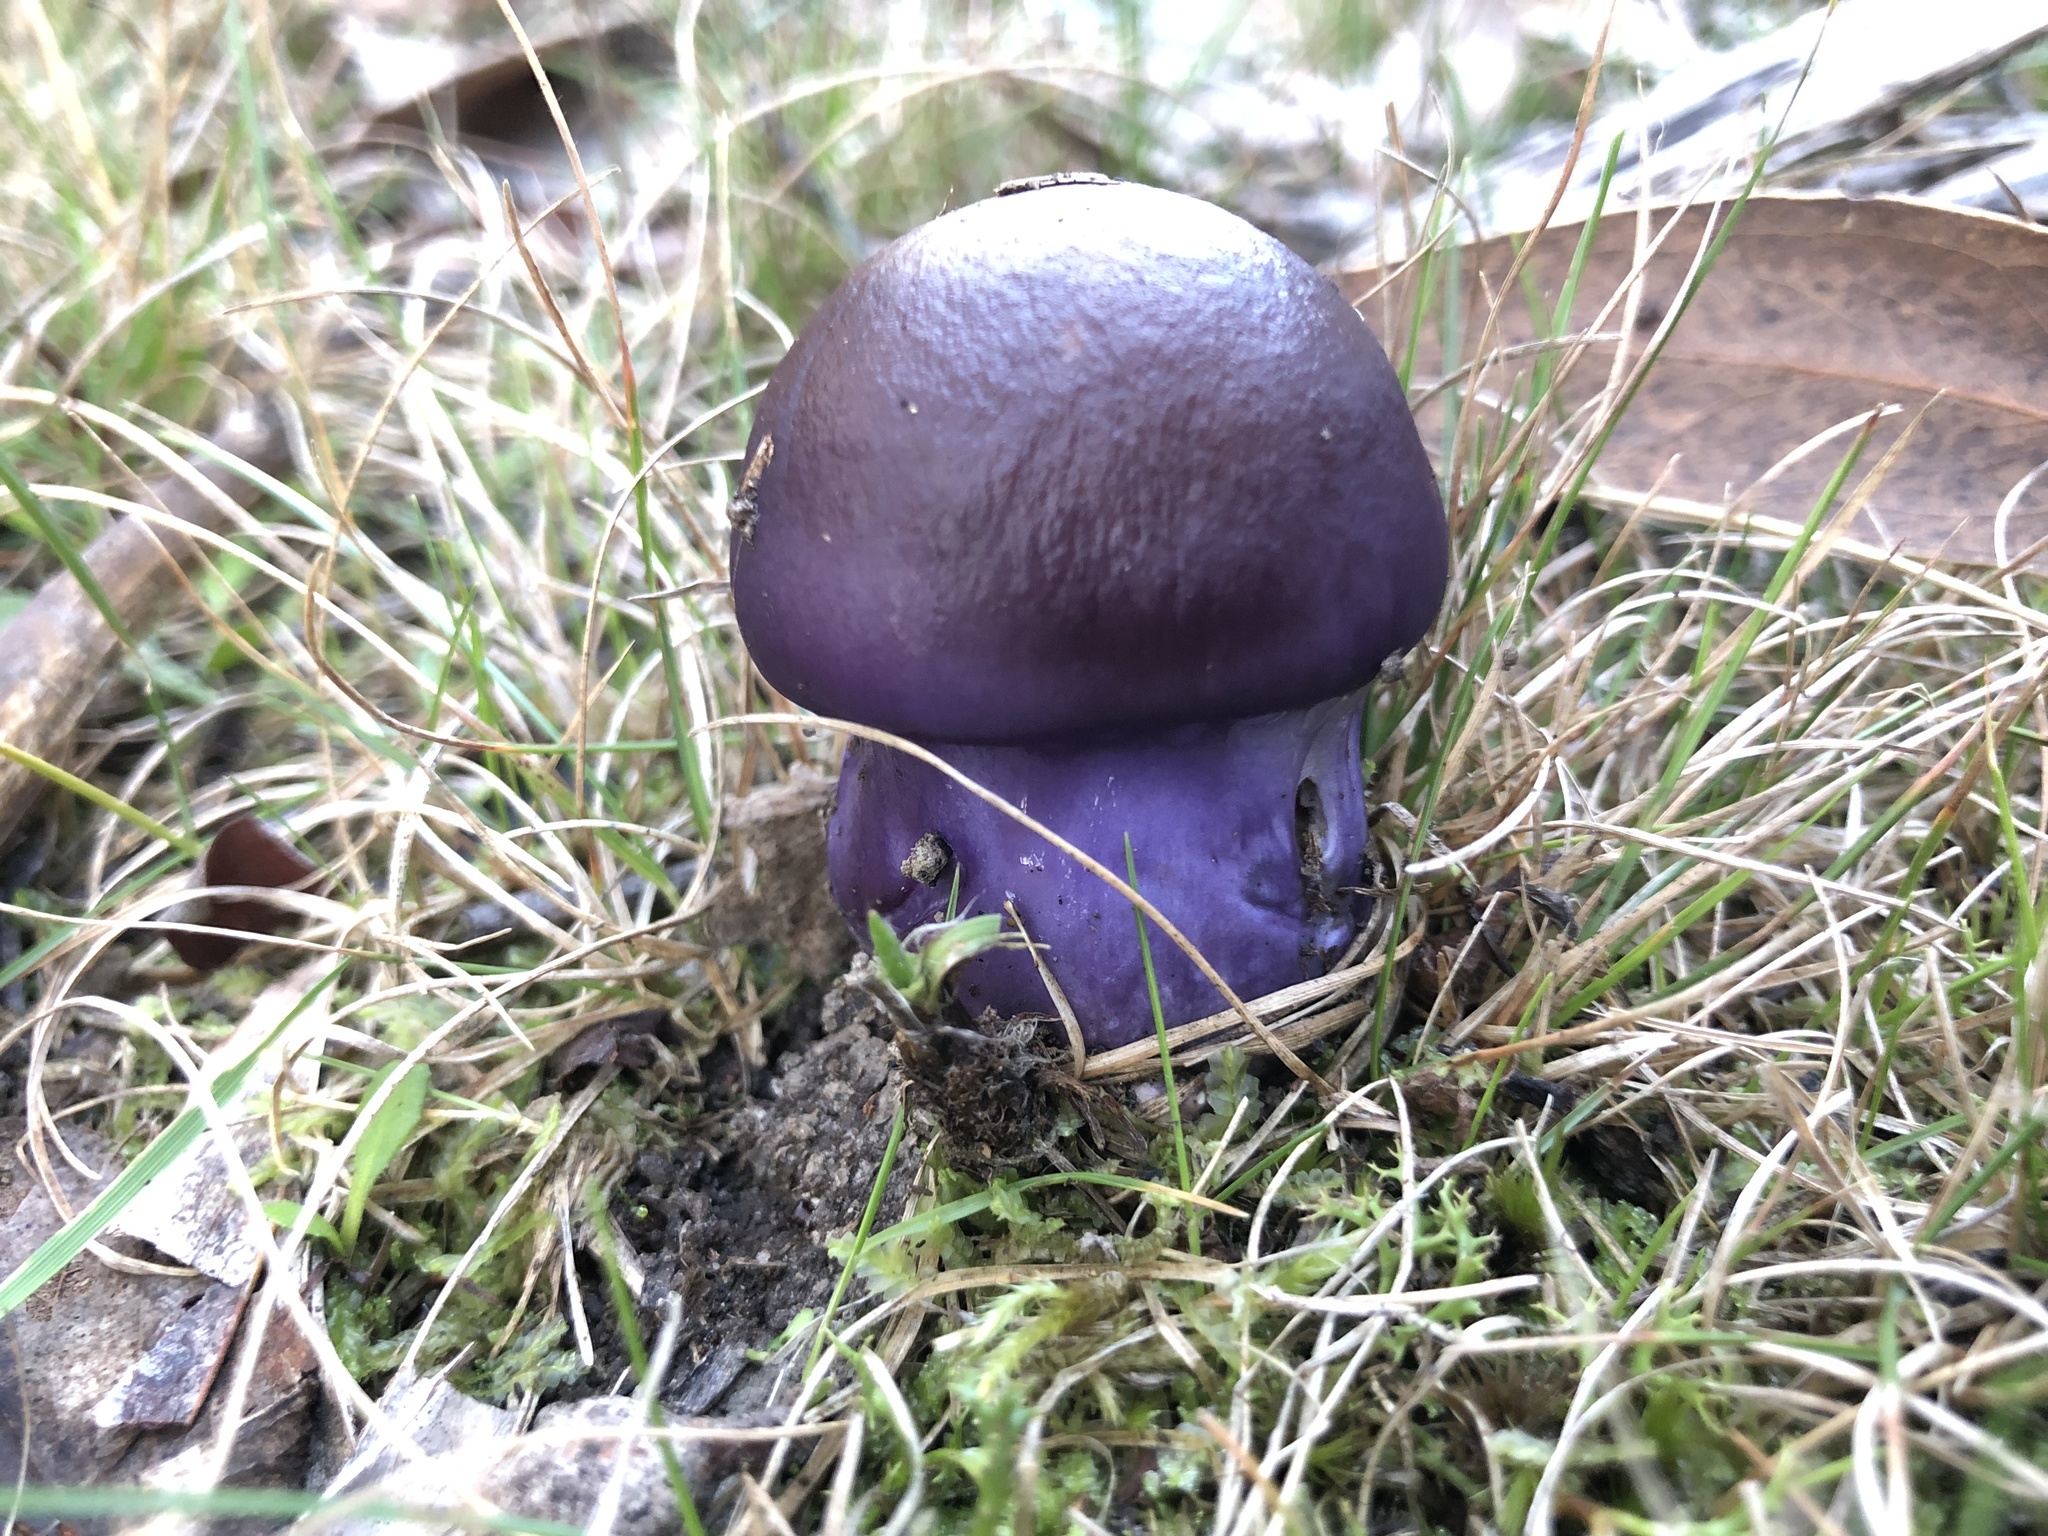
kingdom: Fungi
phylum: Basidiomycota
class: Agaricomycetes
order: Agaricales
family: Cortinariaceae
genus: Cortinarius
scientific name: Cortinarius archeri
